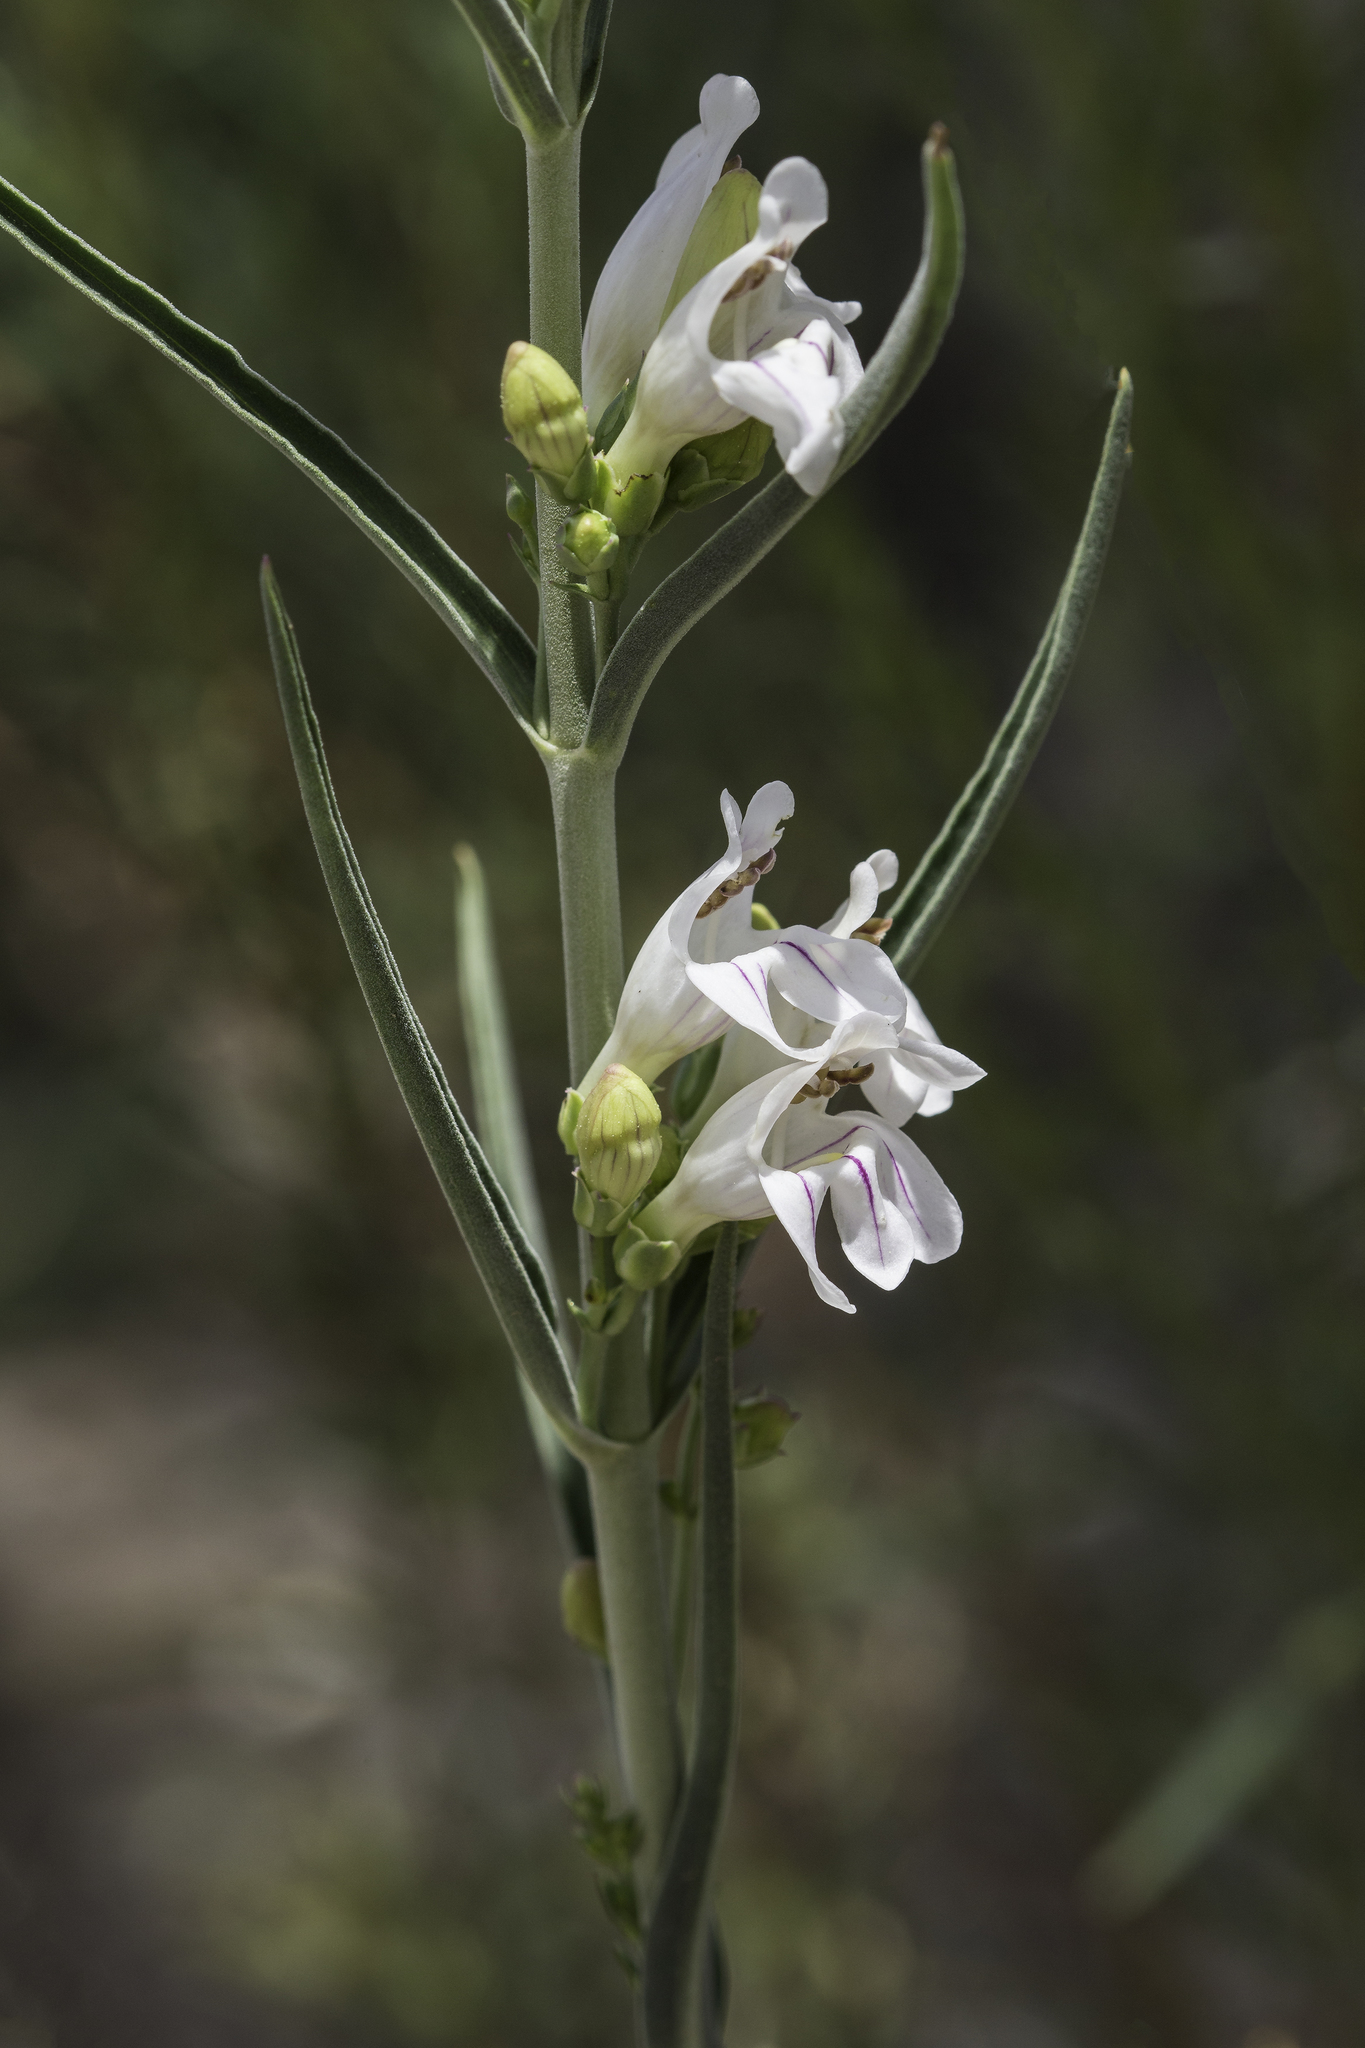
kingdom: Plantae
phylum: Tracheophyta
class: Magnoliopsida
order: Lamiales
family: Plantaginaceae
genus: Penstemon
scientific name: Penstemon virgatus
